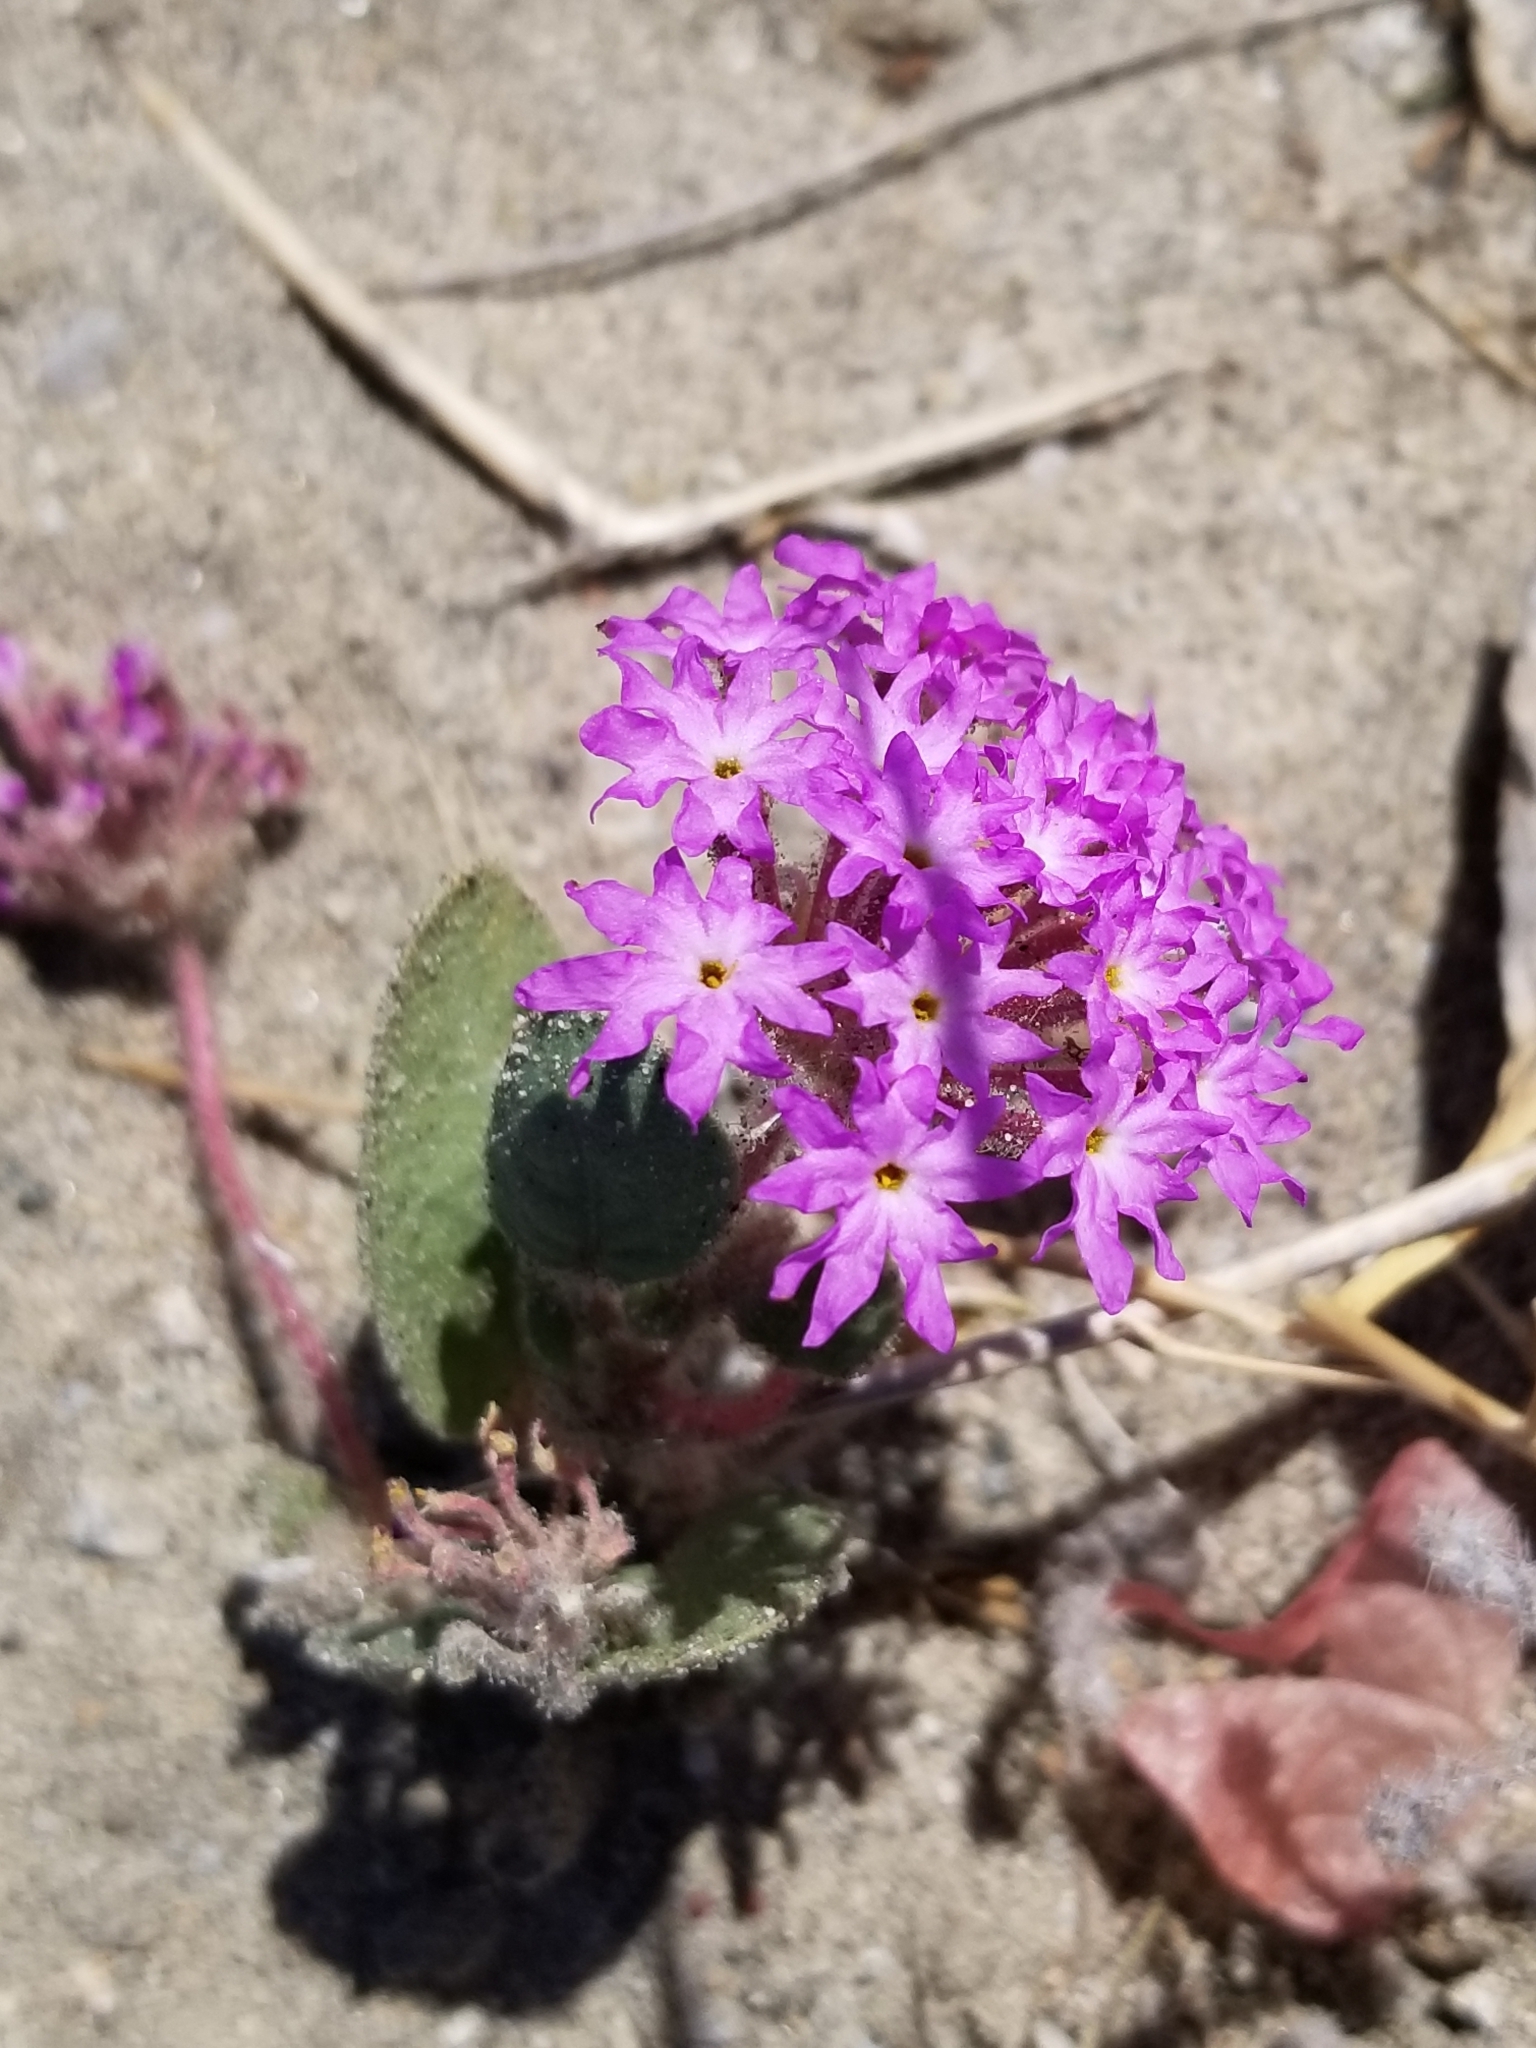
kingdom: Plantae
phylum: Tracheophyta
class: Magnoliopsida
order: Caryophyllales
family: Nyctaginaceae
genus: Abronia
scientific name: Abronia villosa
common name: Desert sand-verbena
